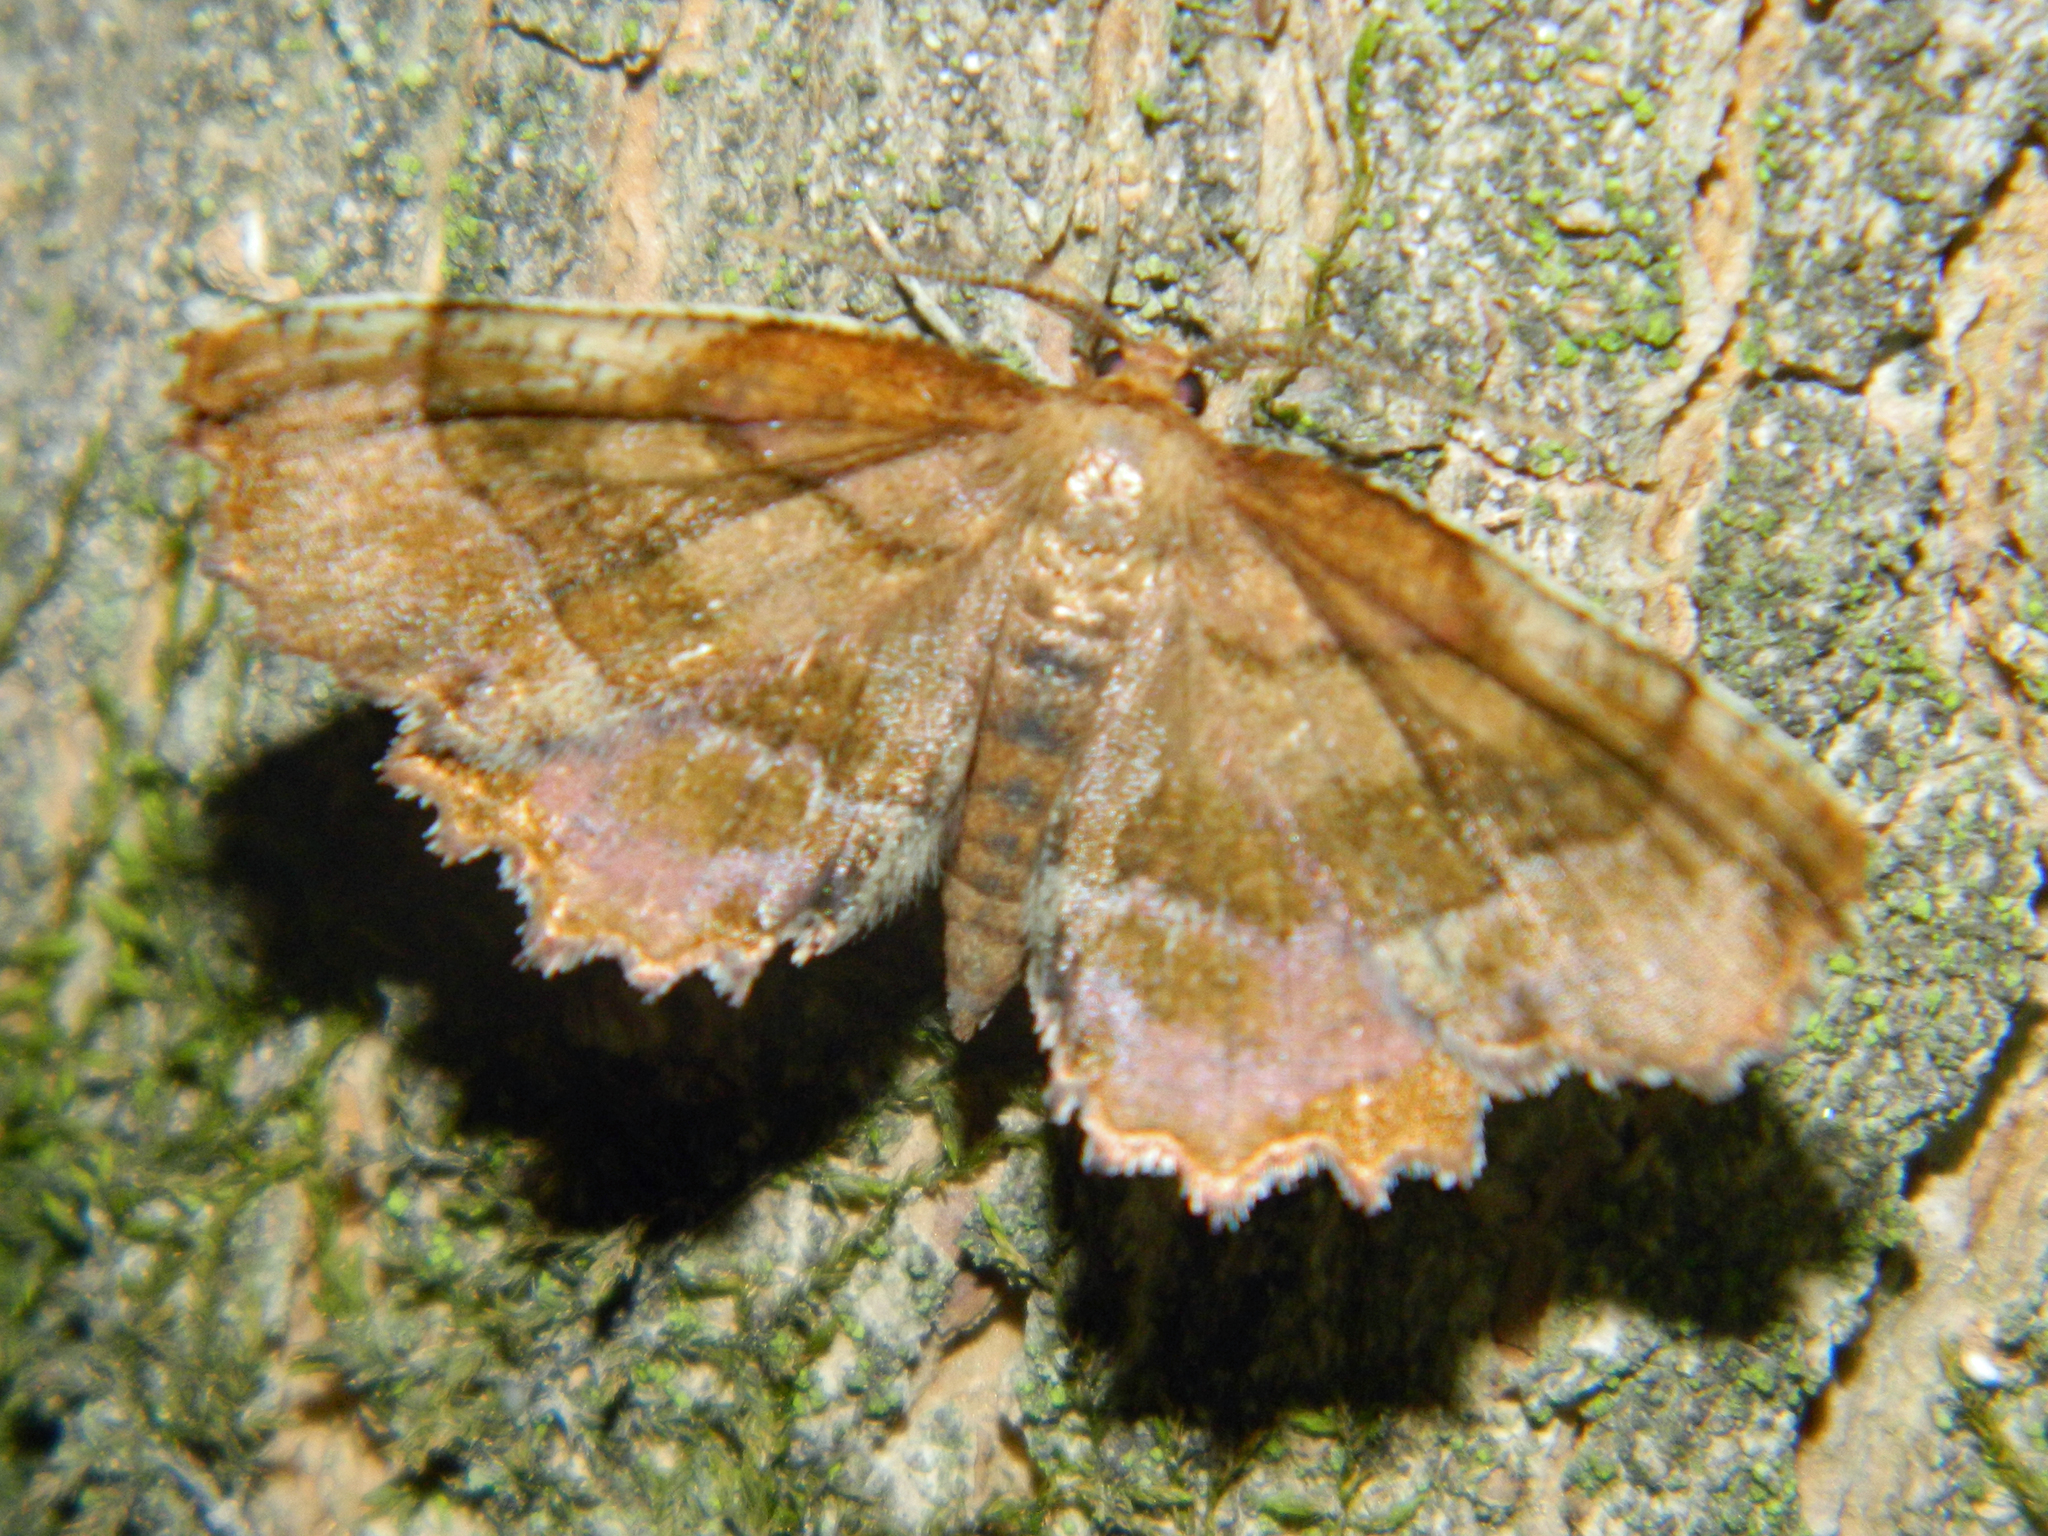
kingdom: Animalia
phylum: Arthropoda
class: Insecta
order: Lepidoptera
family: Geometridae
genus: Cepphis
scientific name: Cepphis armataria
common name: Scallop moth
